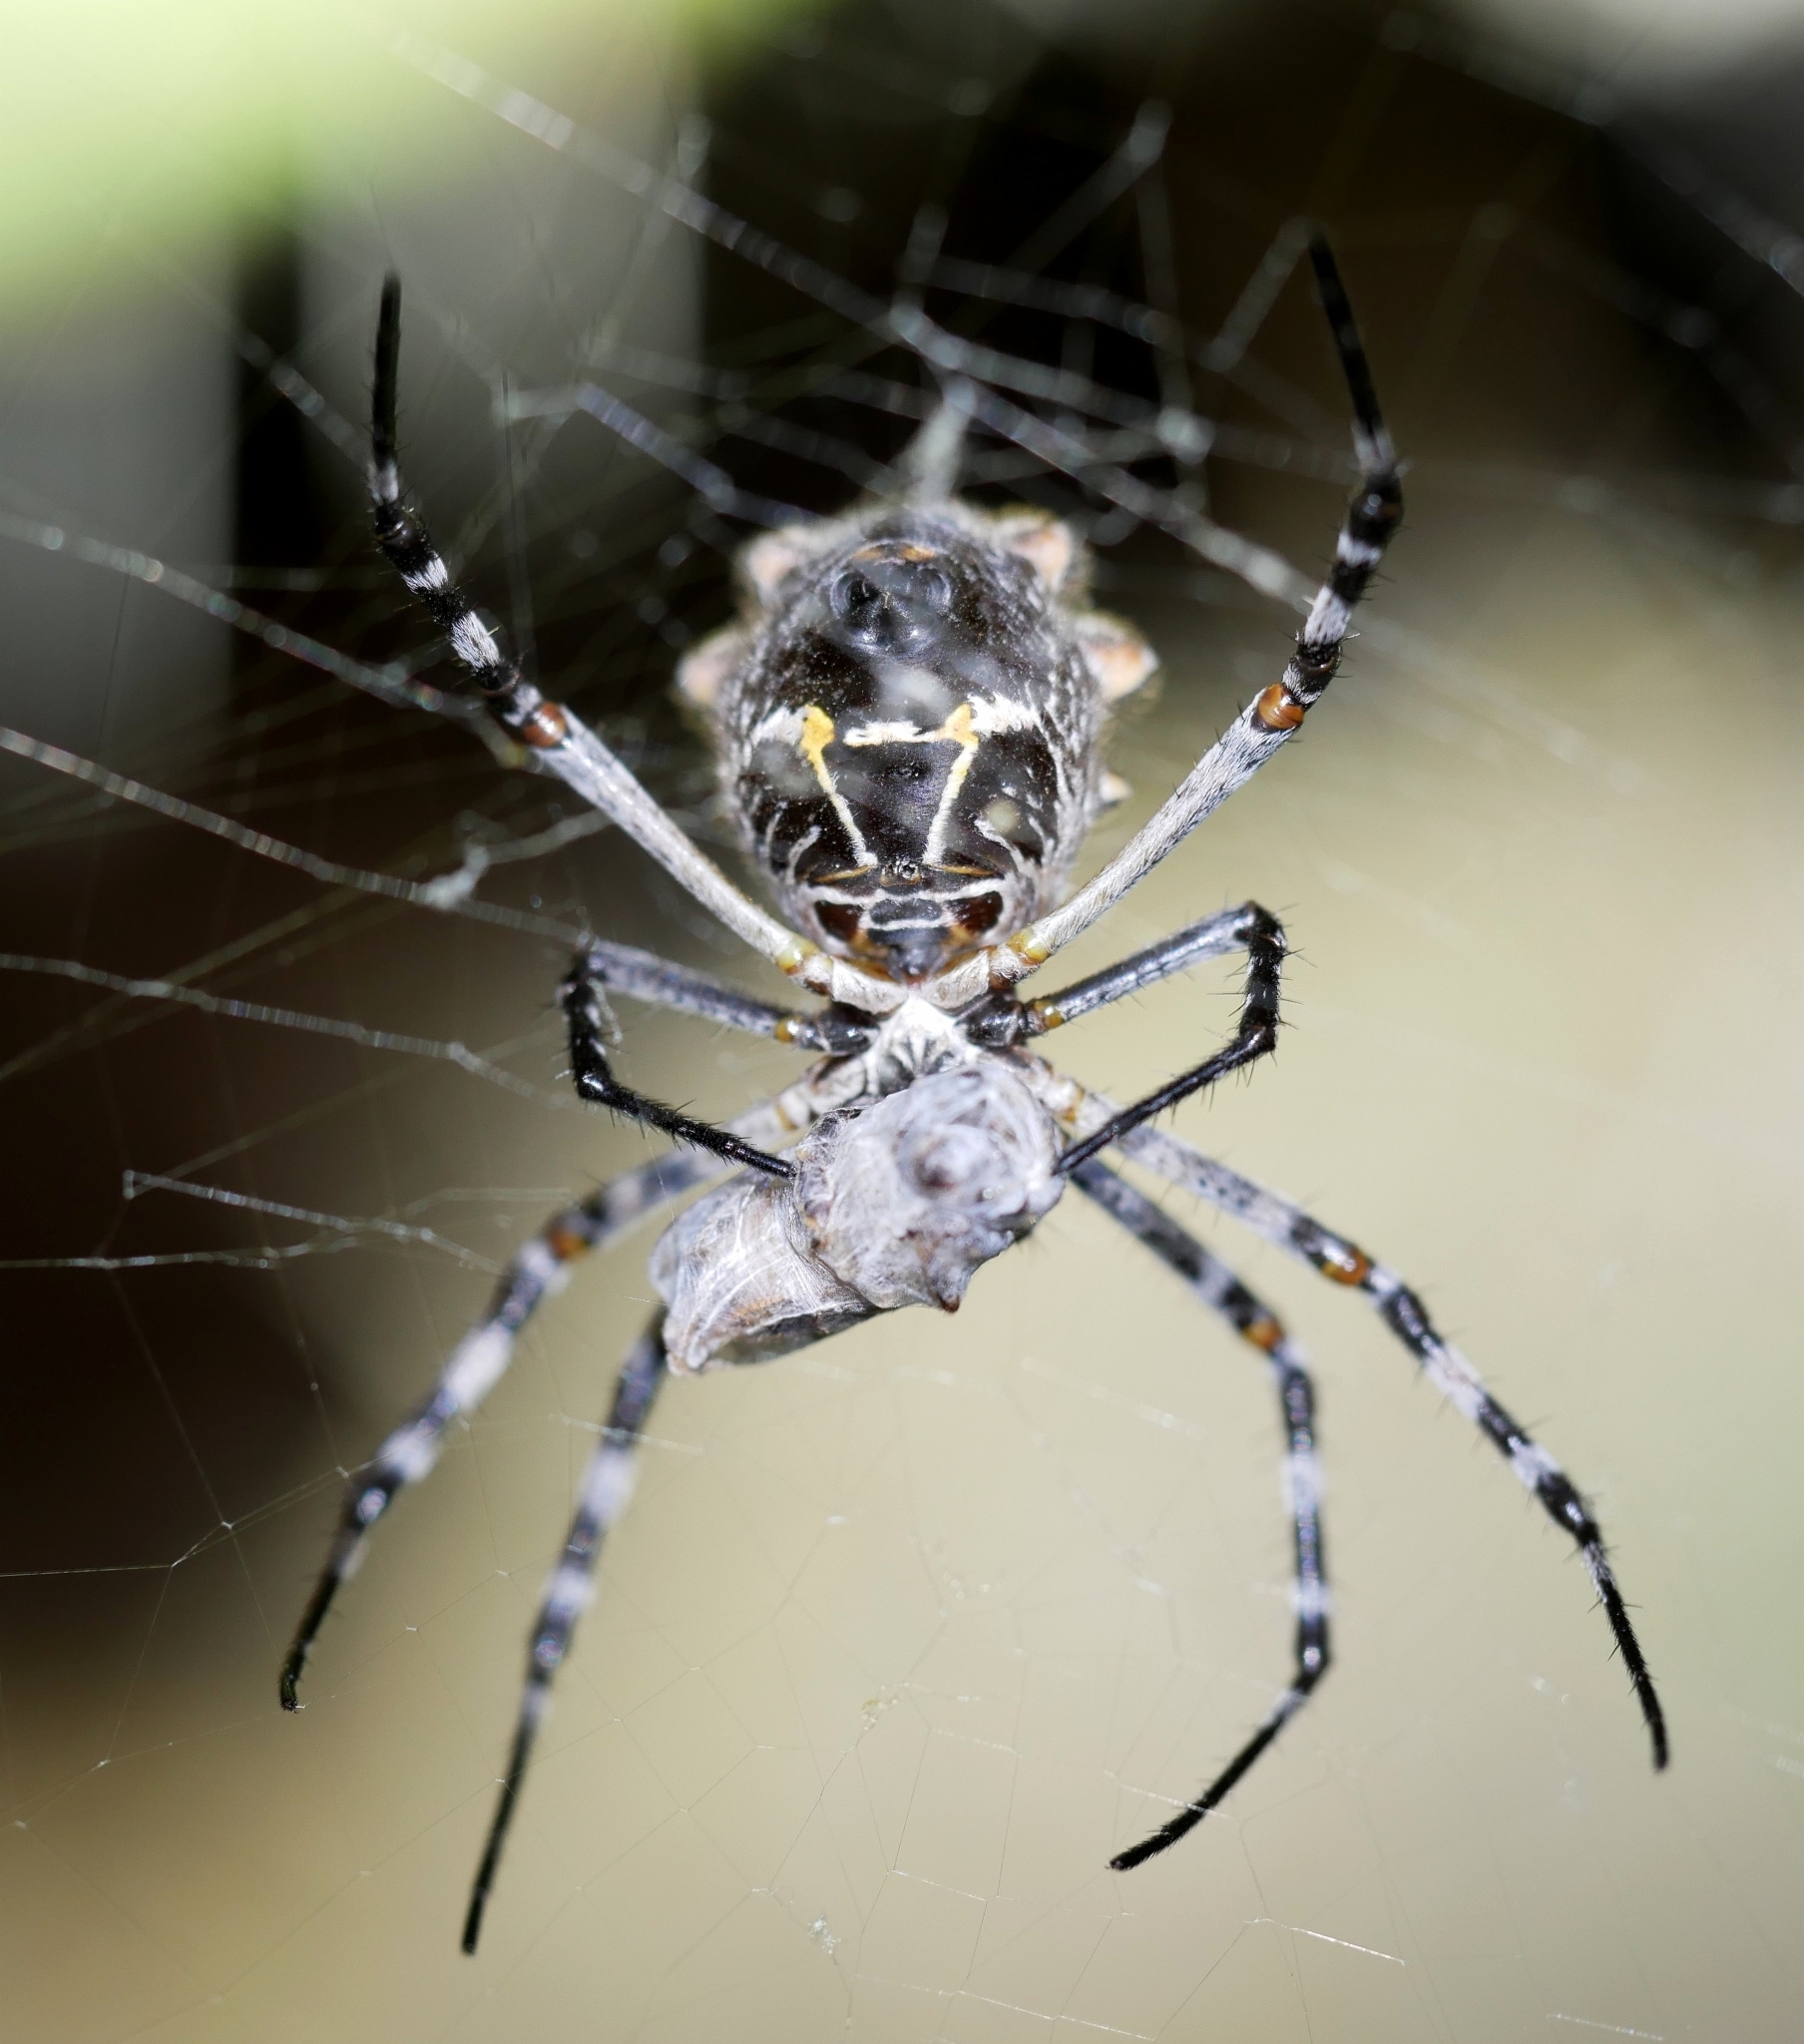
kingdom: Animalia
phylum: Arthropoda
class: Arachnida
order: Araneae
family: Araneidae
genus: Argiope
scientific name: Argiope argentata
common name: Orb weavers
